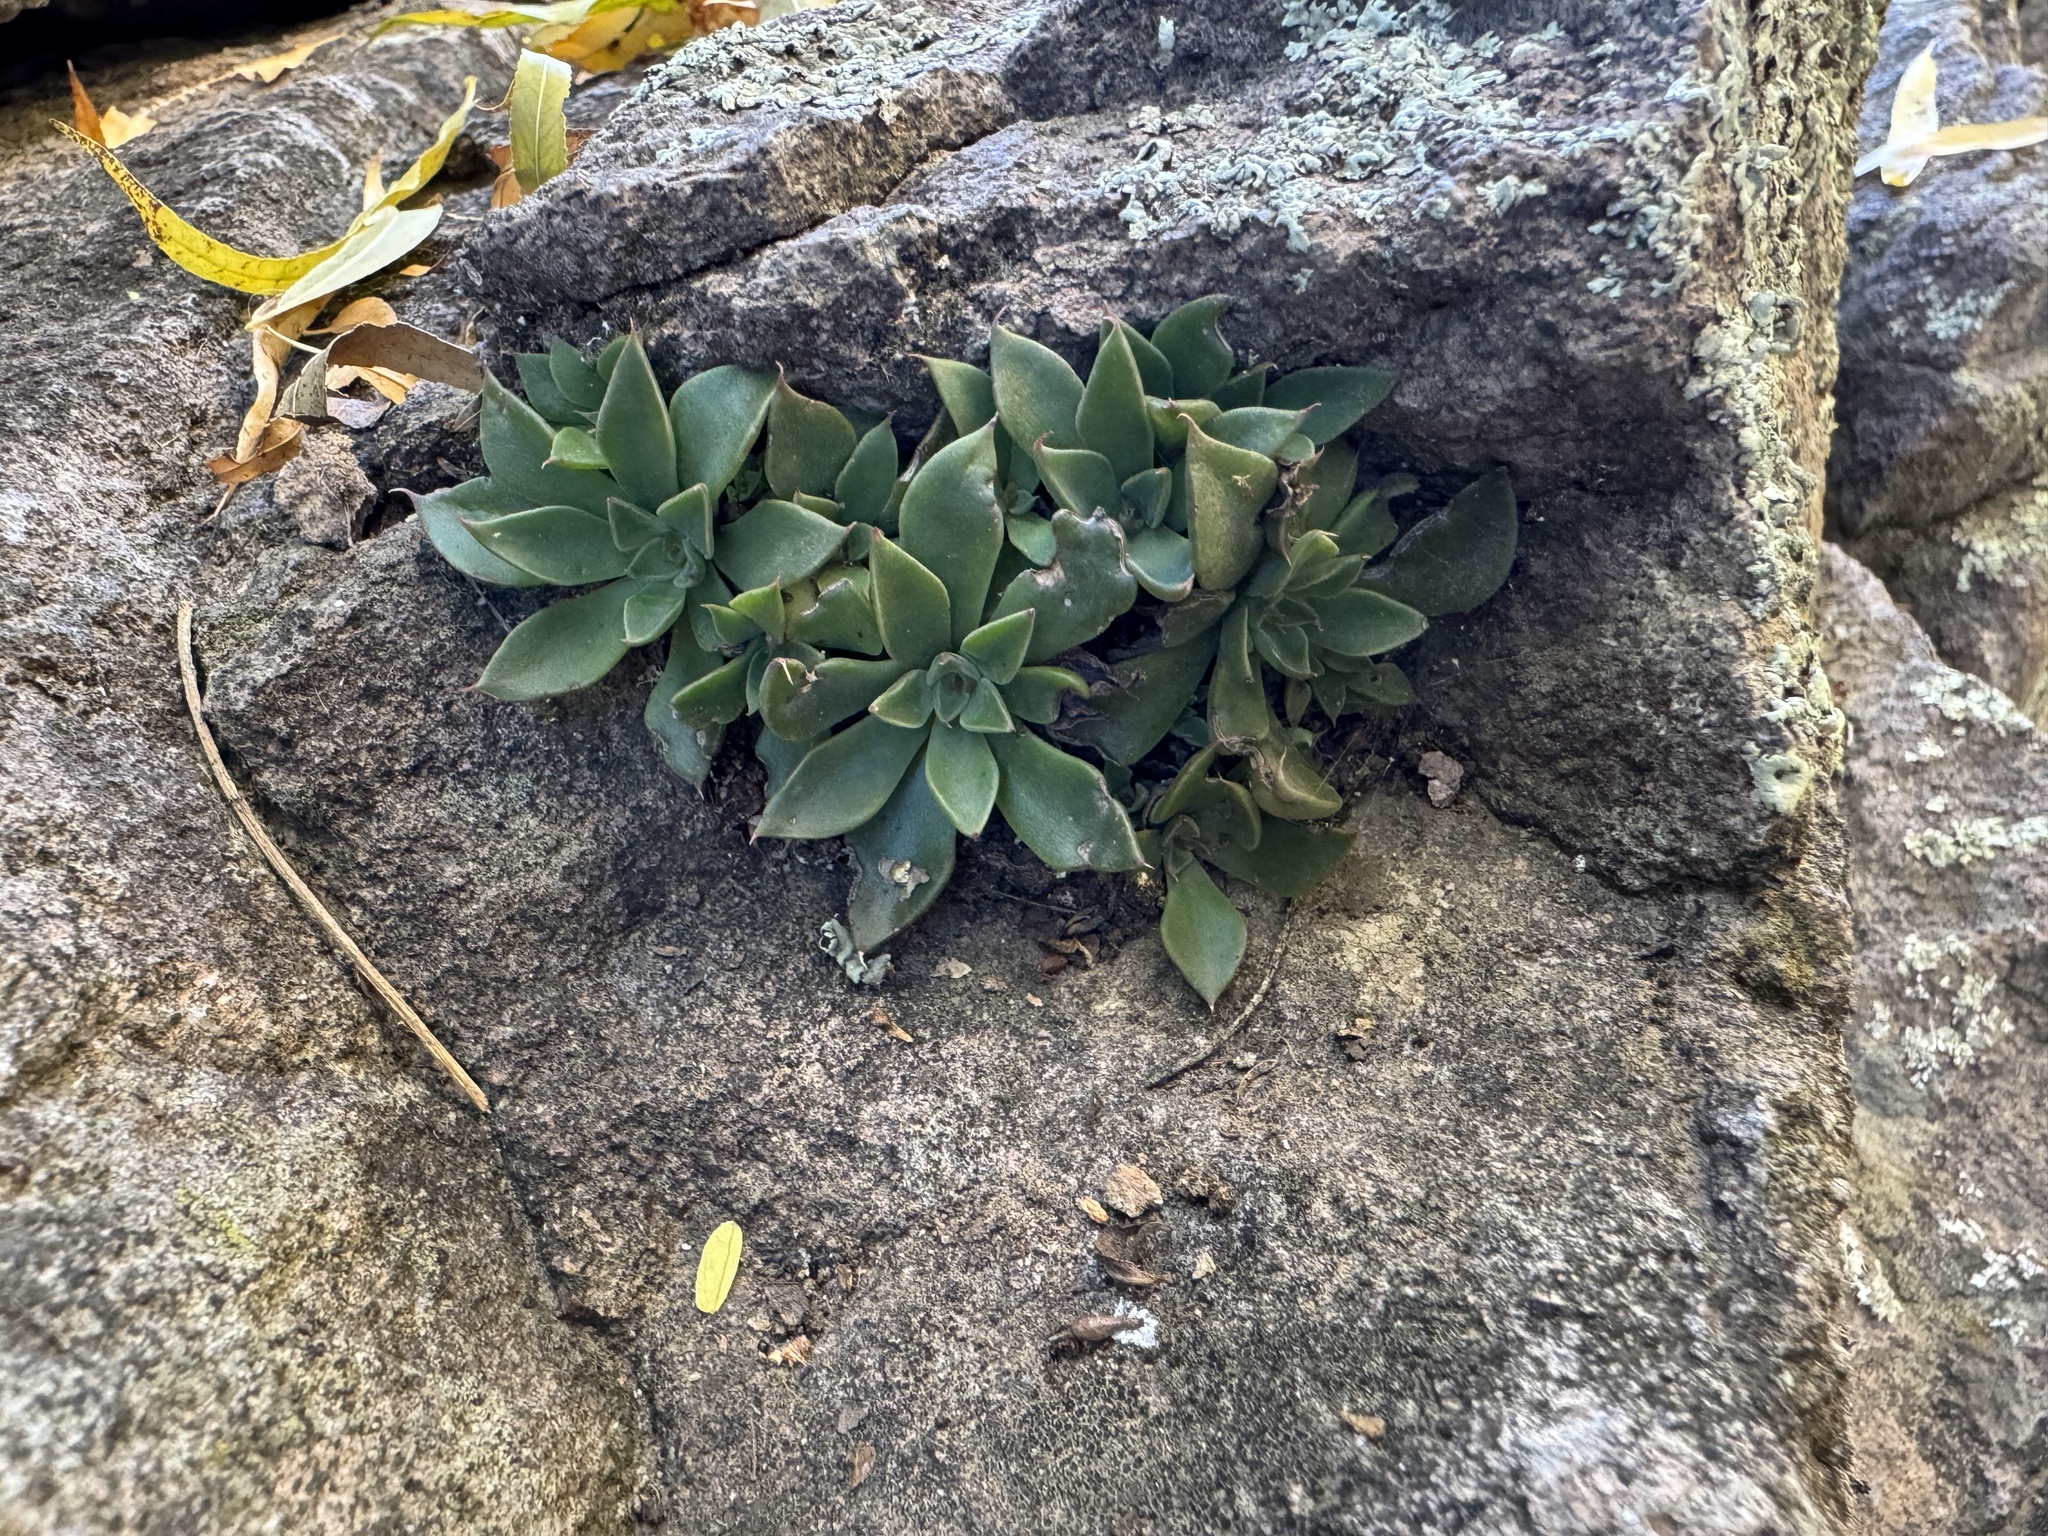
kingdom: Plantae
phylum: Tracheophyta
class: Magnoliopsida
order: Saxifragales
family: Crassulaceae
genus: Graptopetalum
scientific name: Graptopetalum rusbyi
